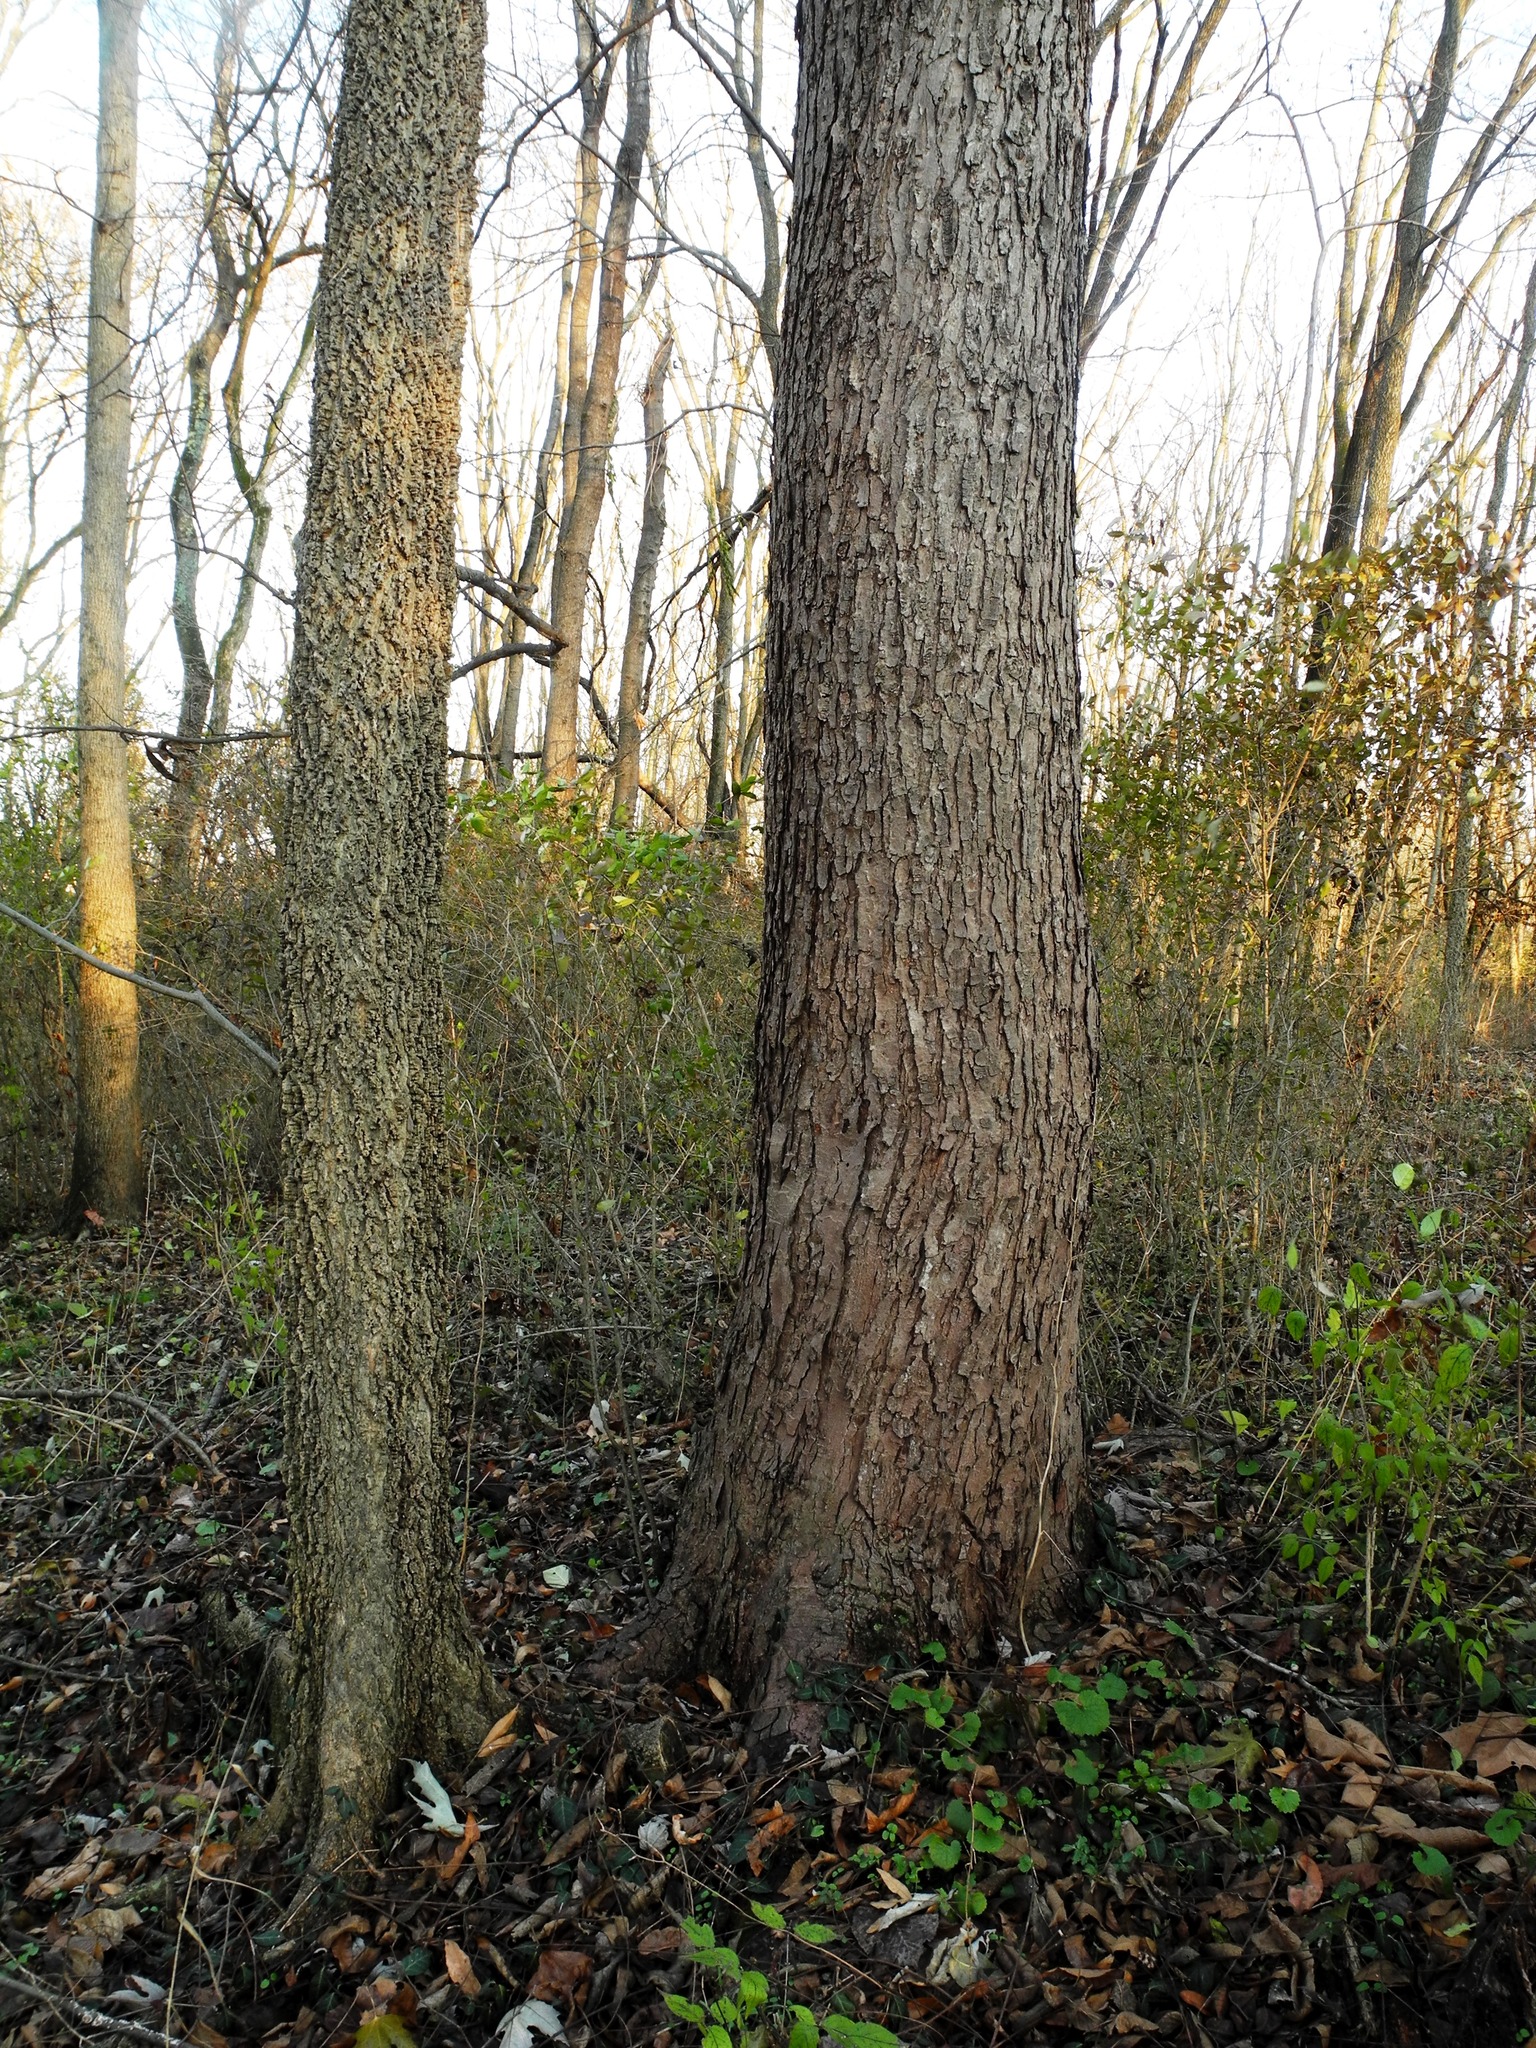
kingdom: Plantae
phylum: Tracheophyta
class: Magnoliopsida
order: Sapindales
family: Sapindaceae
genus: Acer
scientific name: Acer saccharinum
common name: Silver maple
